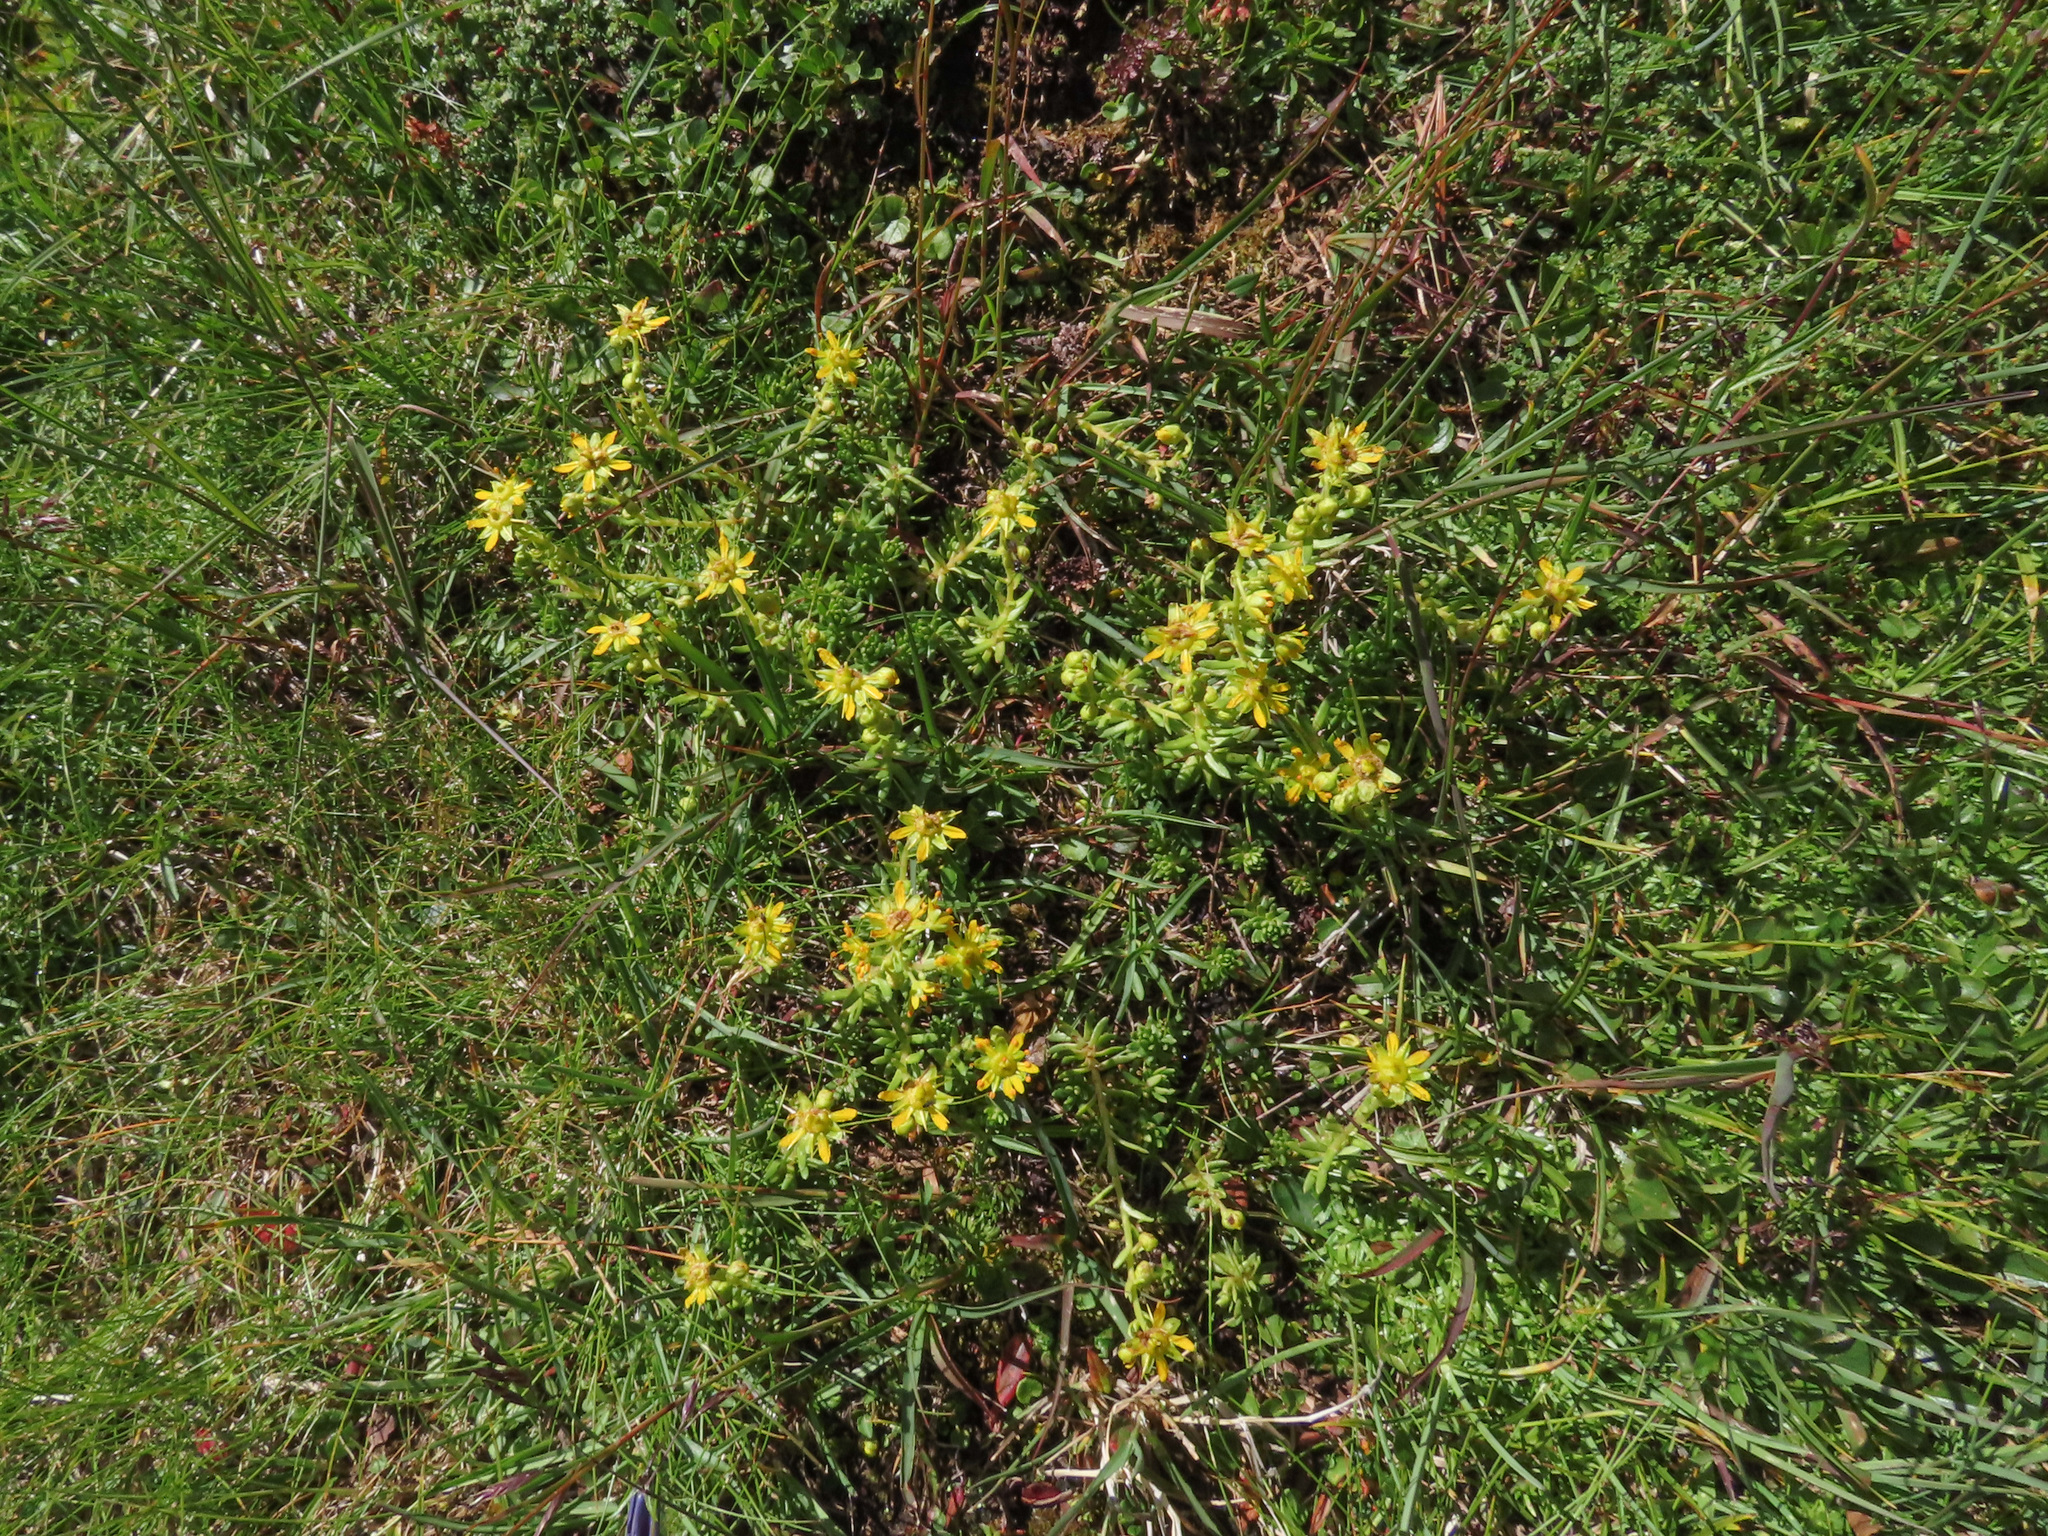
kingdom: Plantae
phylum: Tracheophyta
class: Magnoliopsida
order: Saxifragales
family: Saxifragaceae
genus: Saxifraga
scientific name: Saxifraga aizoides
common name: Yellow mountain saxifrage
